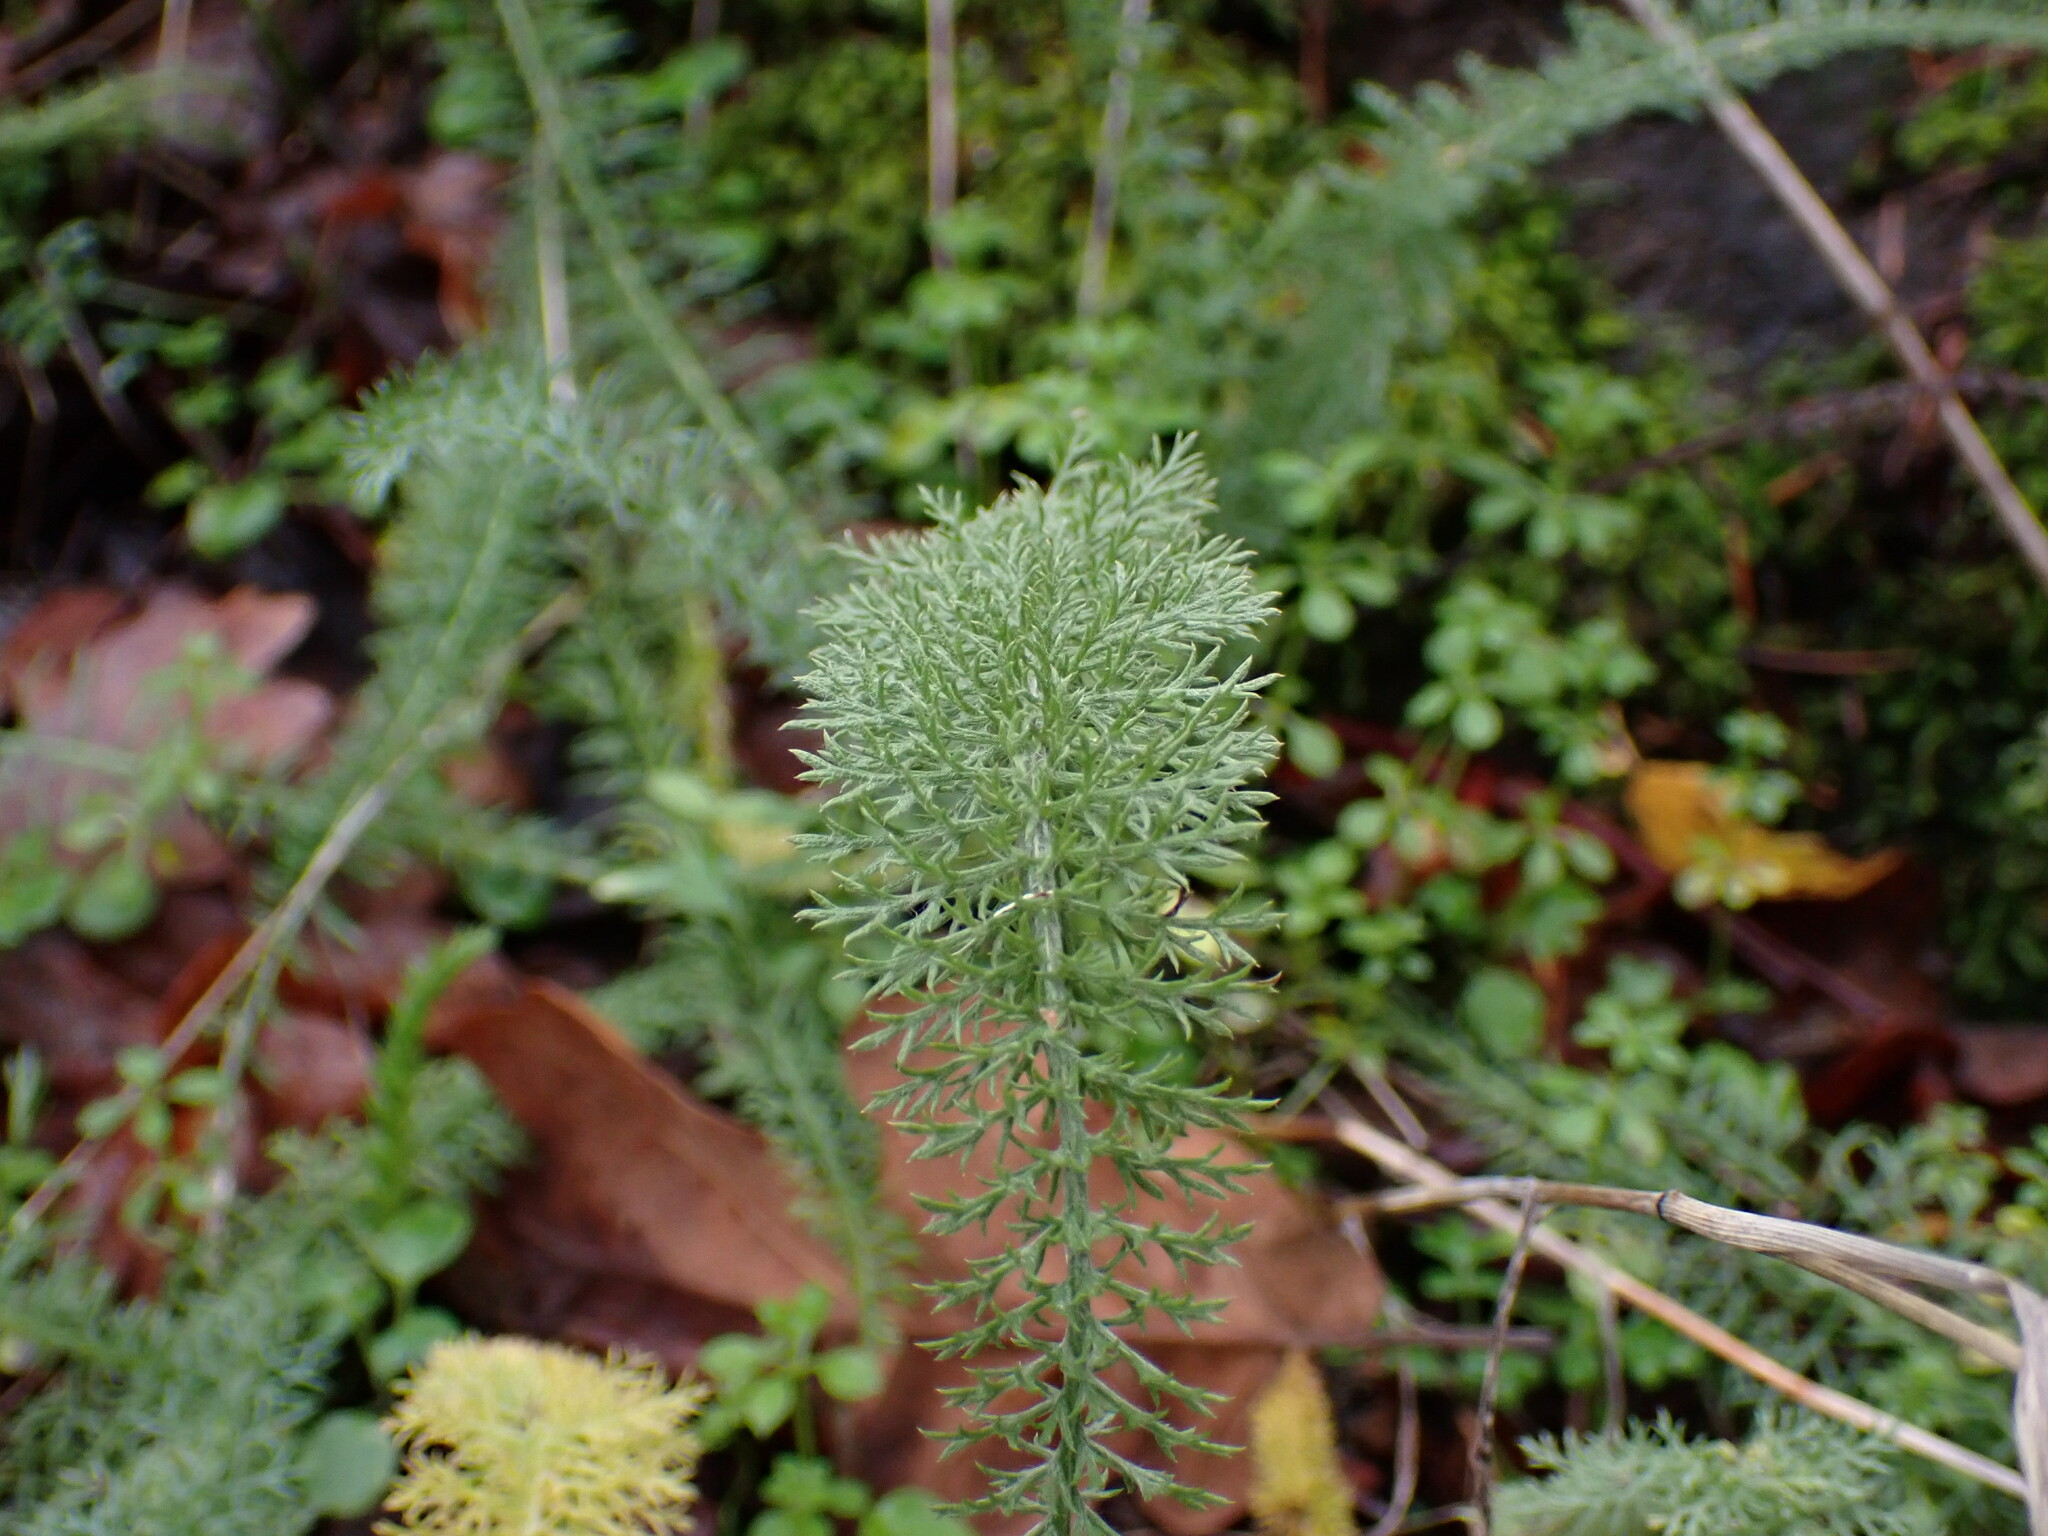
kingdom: Plantae
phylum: Tracheophyta
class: Magnoliopsida
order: Asterales
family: Asteraceae
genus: Achillea
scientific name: Achillea millefolium
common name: Yarrow
